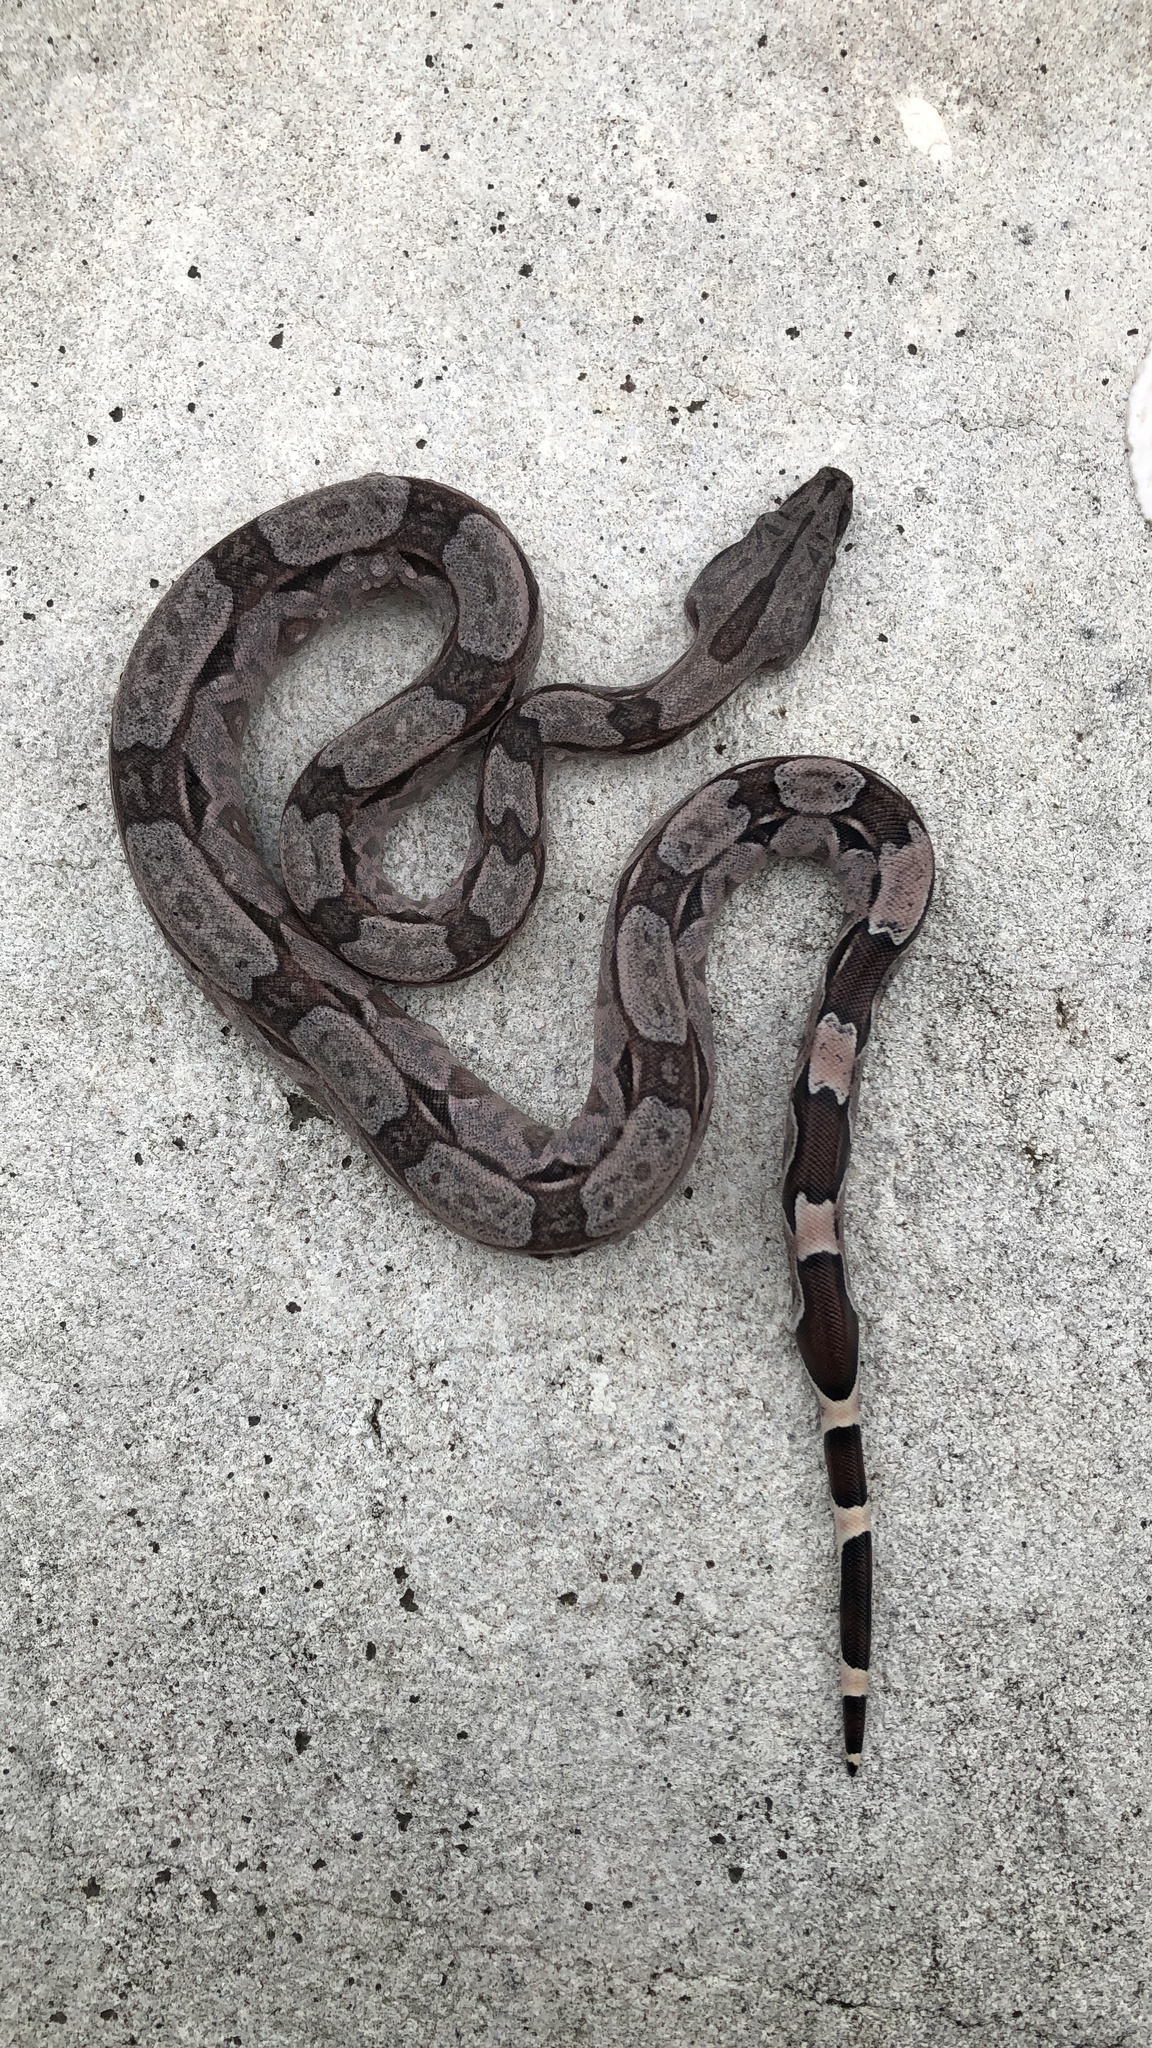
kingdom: Animalia
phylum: Chordata
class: Squamata
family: Boidae
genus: Boa
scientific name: Boa constrictor
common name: Boa constrictor
